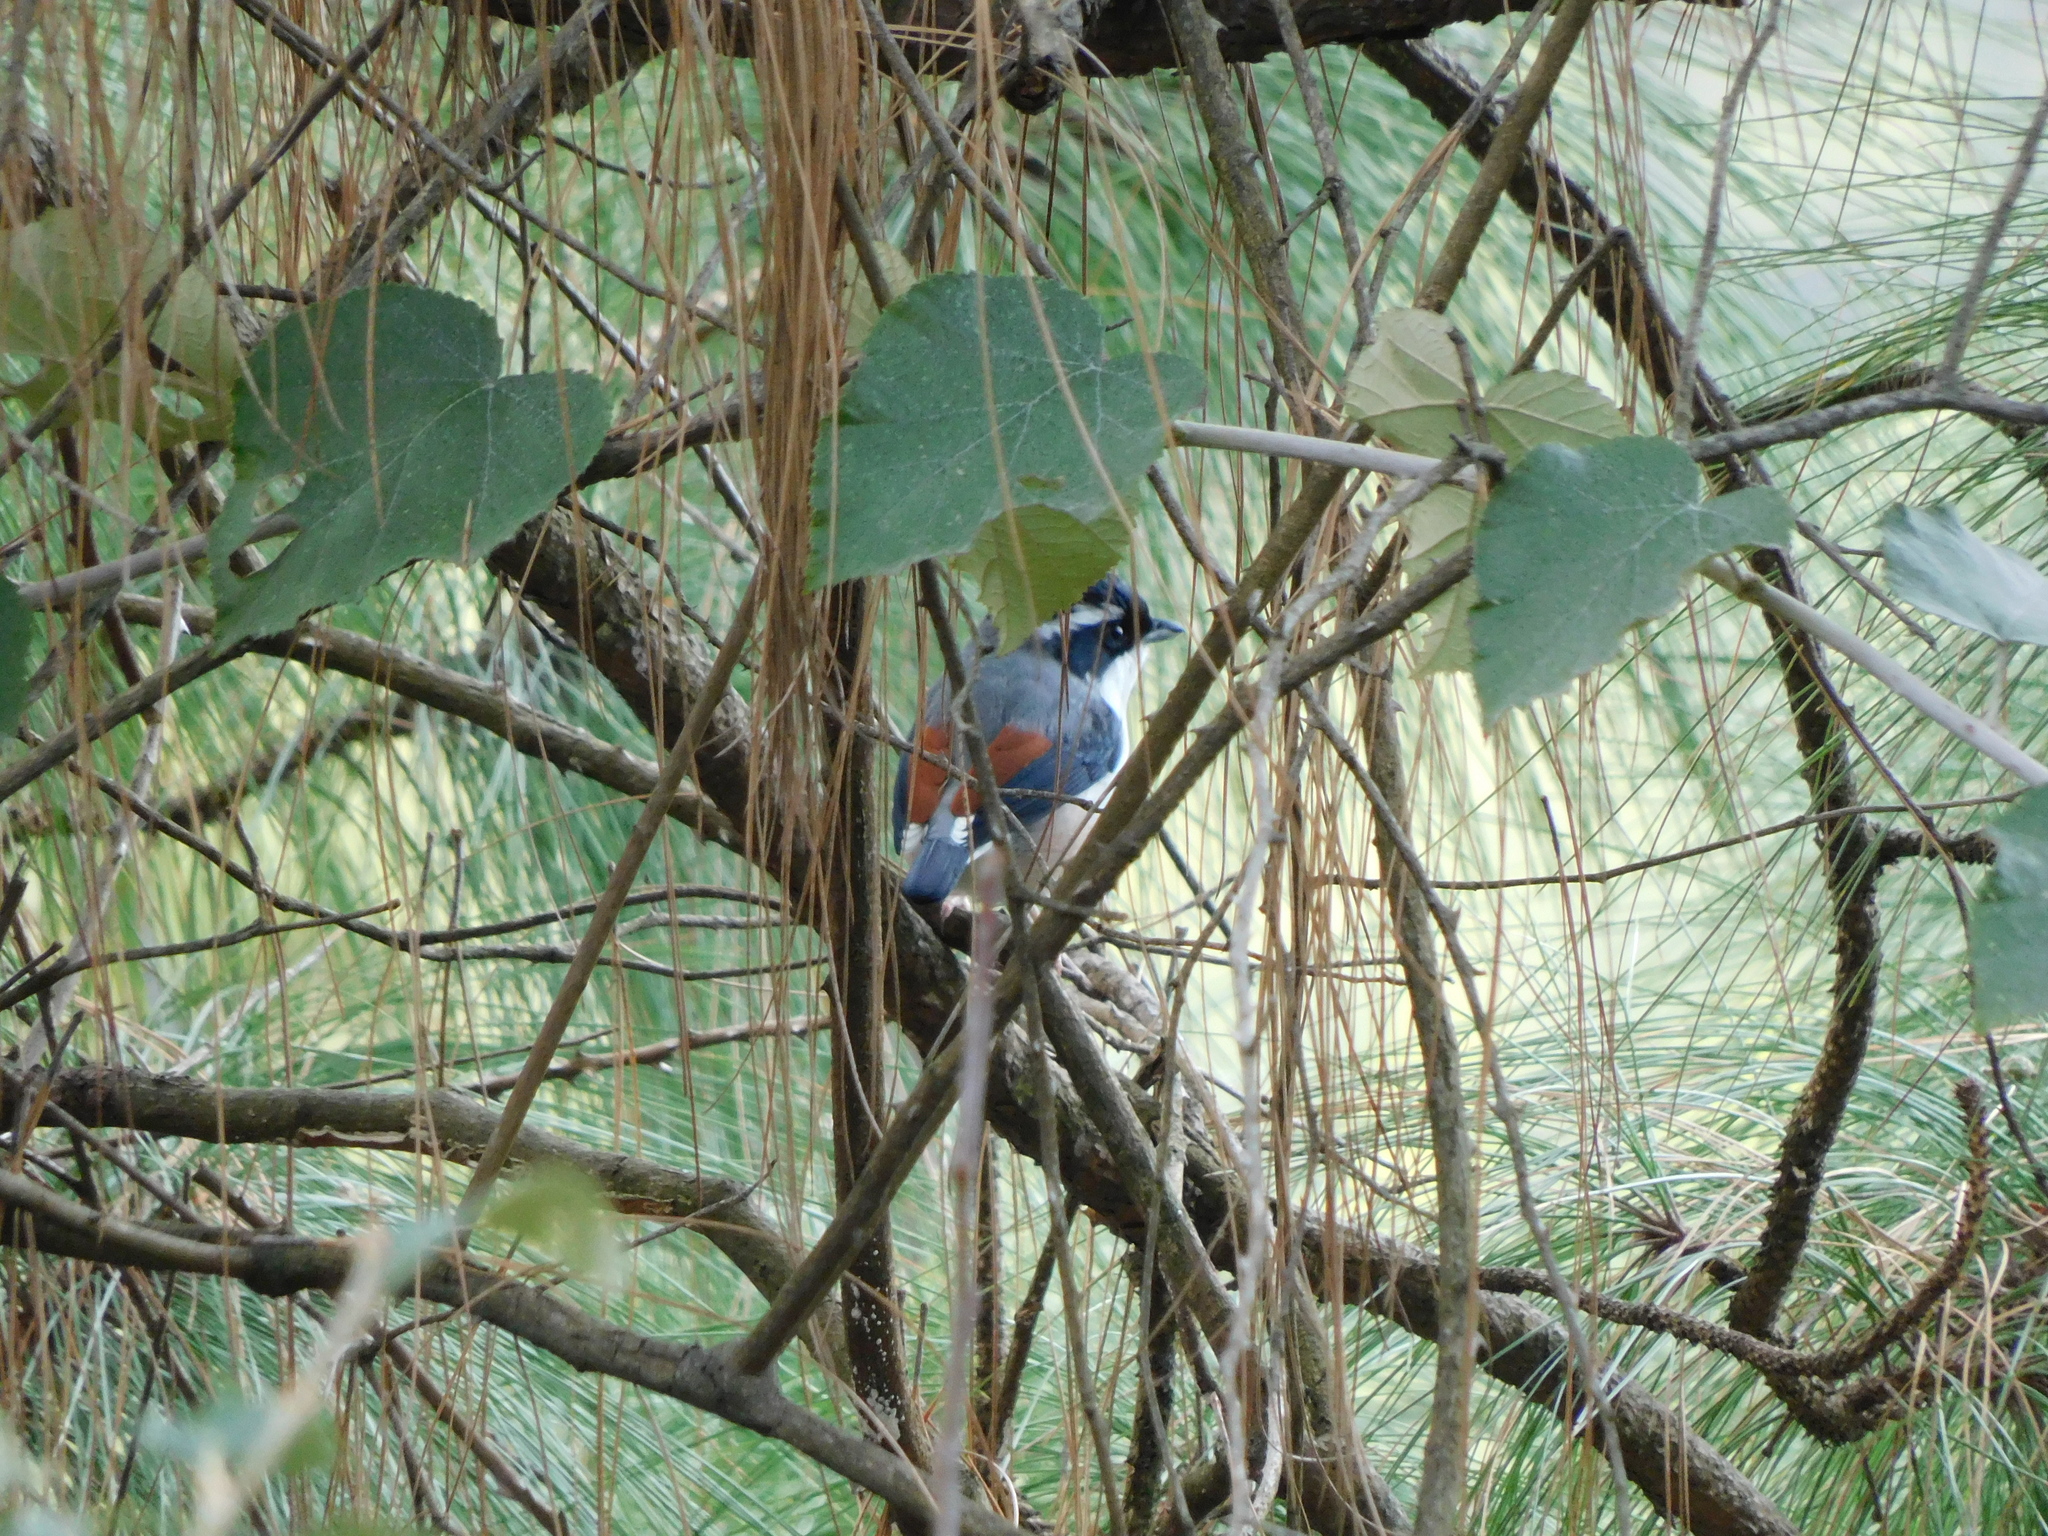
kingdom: Animalia
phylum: Chordata
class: Aves
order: Passeriformes
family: Vireonidae
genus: Pteruthius
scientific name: Pteruthius aeralatus
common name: Blyth's shrike-babbler
